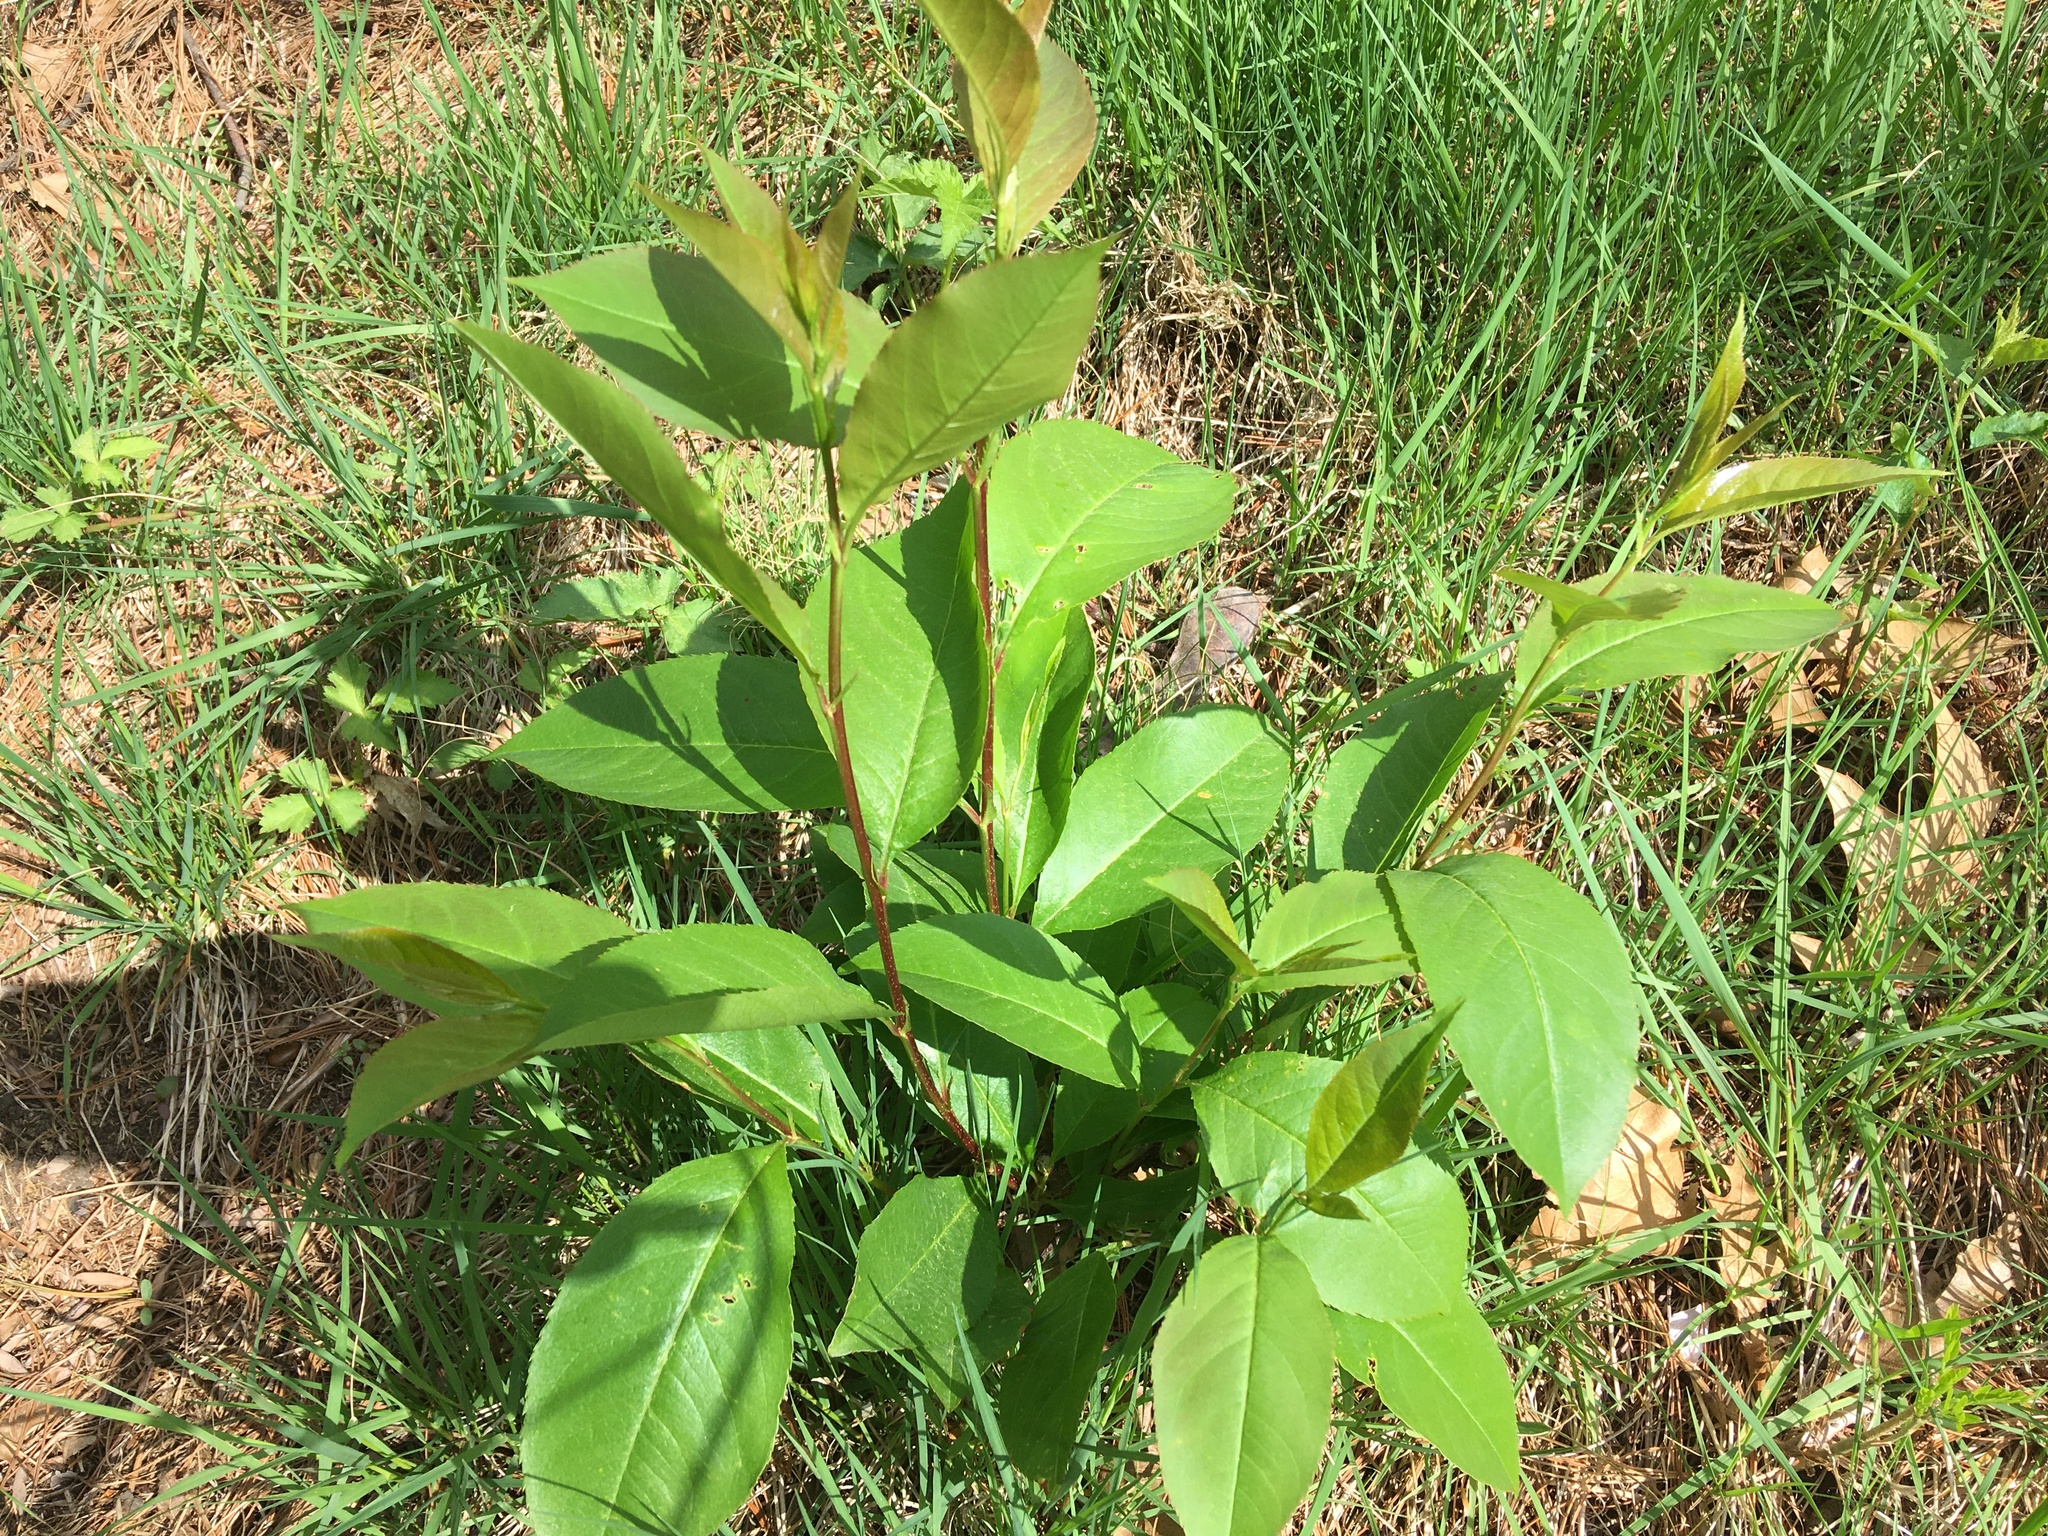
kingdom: Plantae
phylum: Tracheophyta
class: Magnoliopsida
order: Rosales
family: Rosaceae
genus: Prunus
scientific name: Prunus serotina
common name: Black cherry
